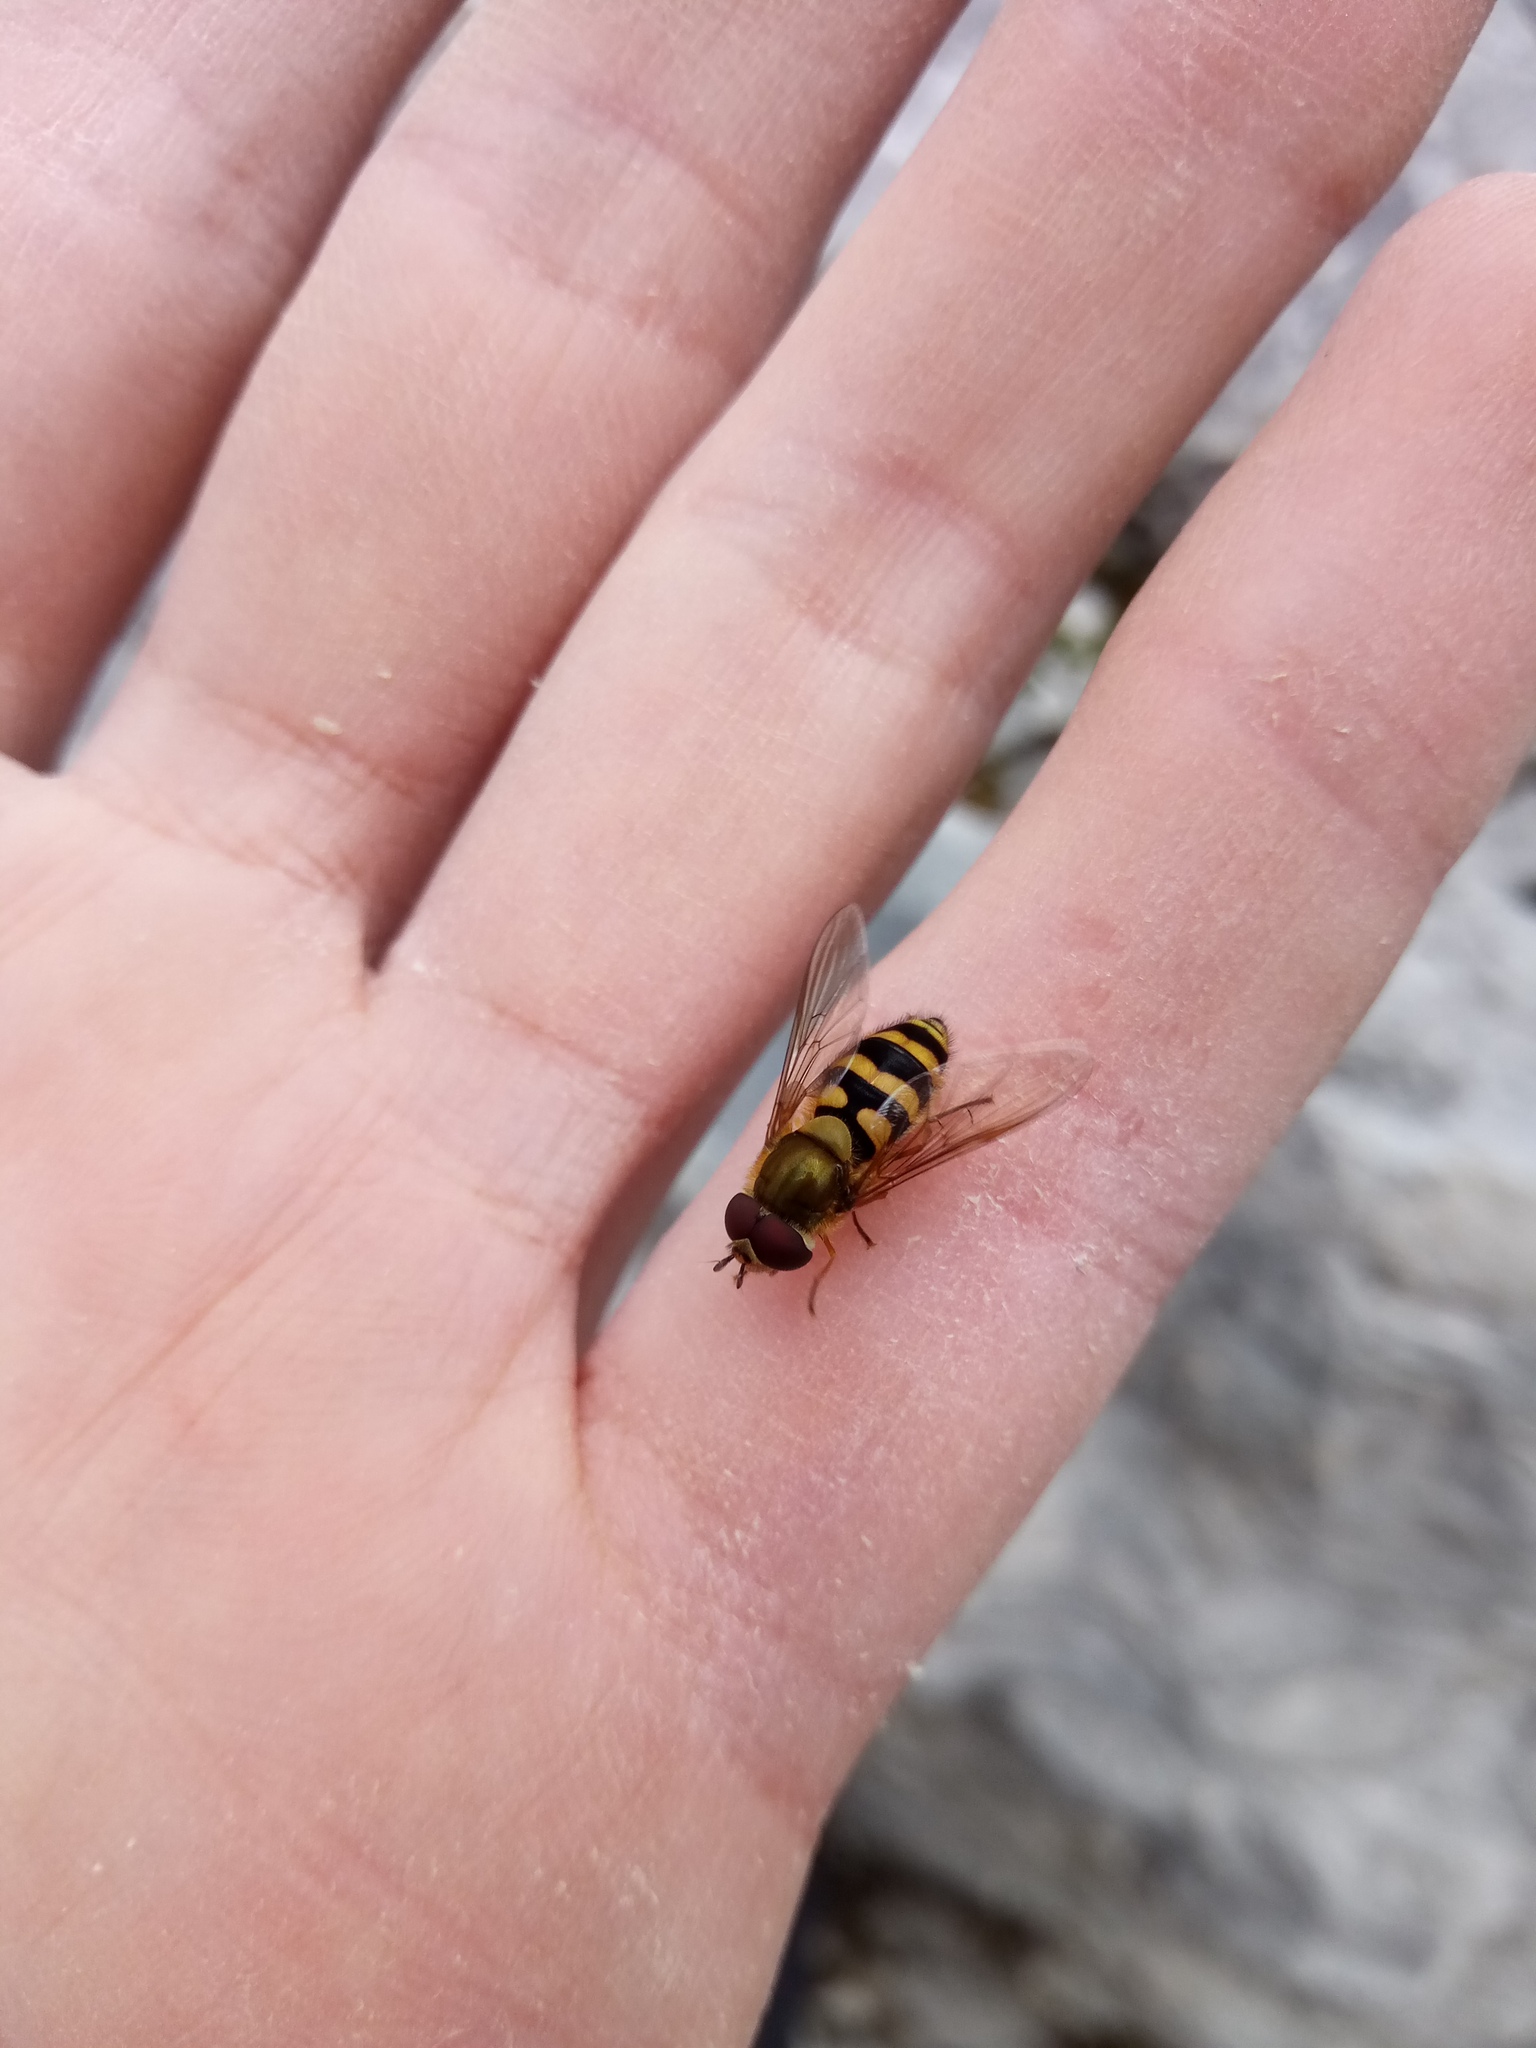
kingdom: Animalia
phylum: Arthropoda
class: Insecta
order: Diptera
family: Syrphidae
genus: Syrphus
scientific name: Syrphus
